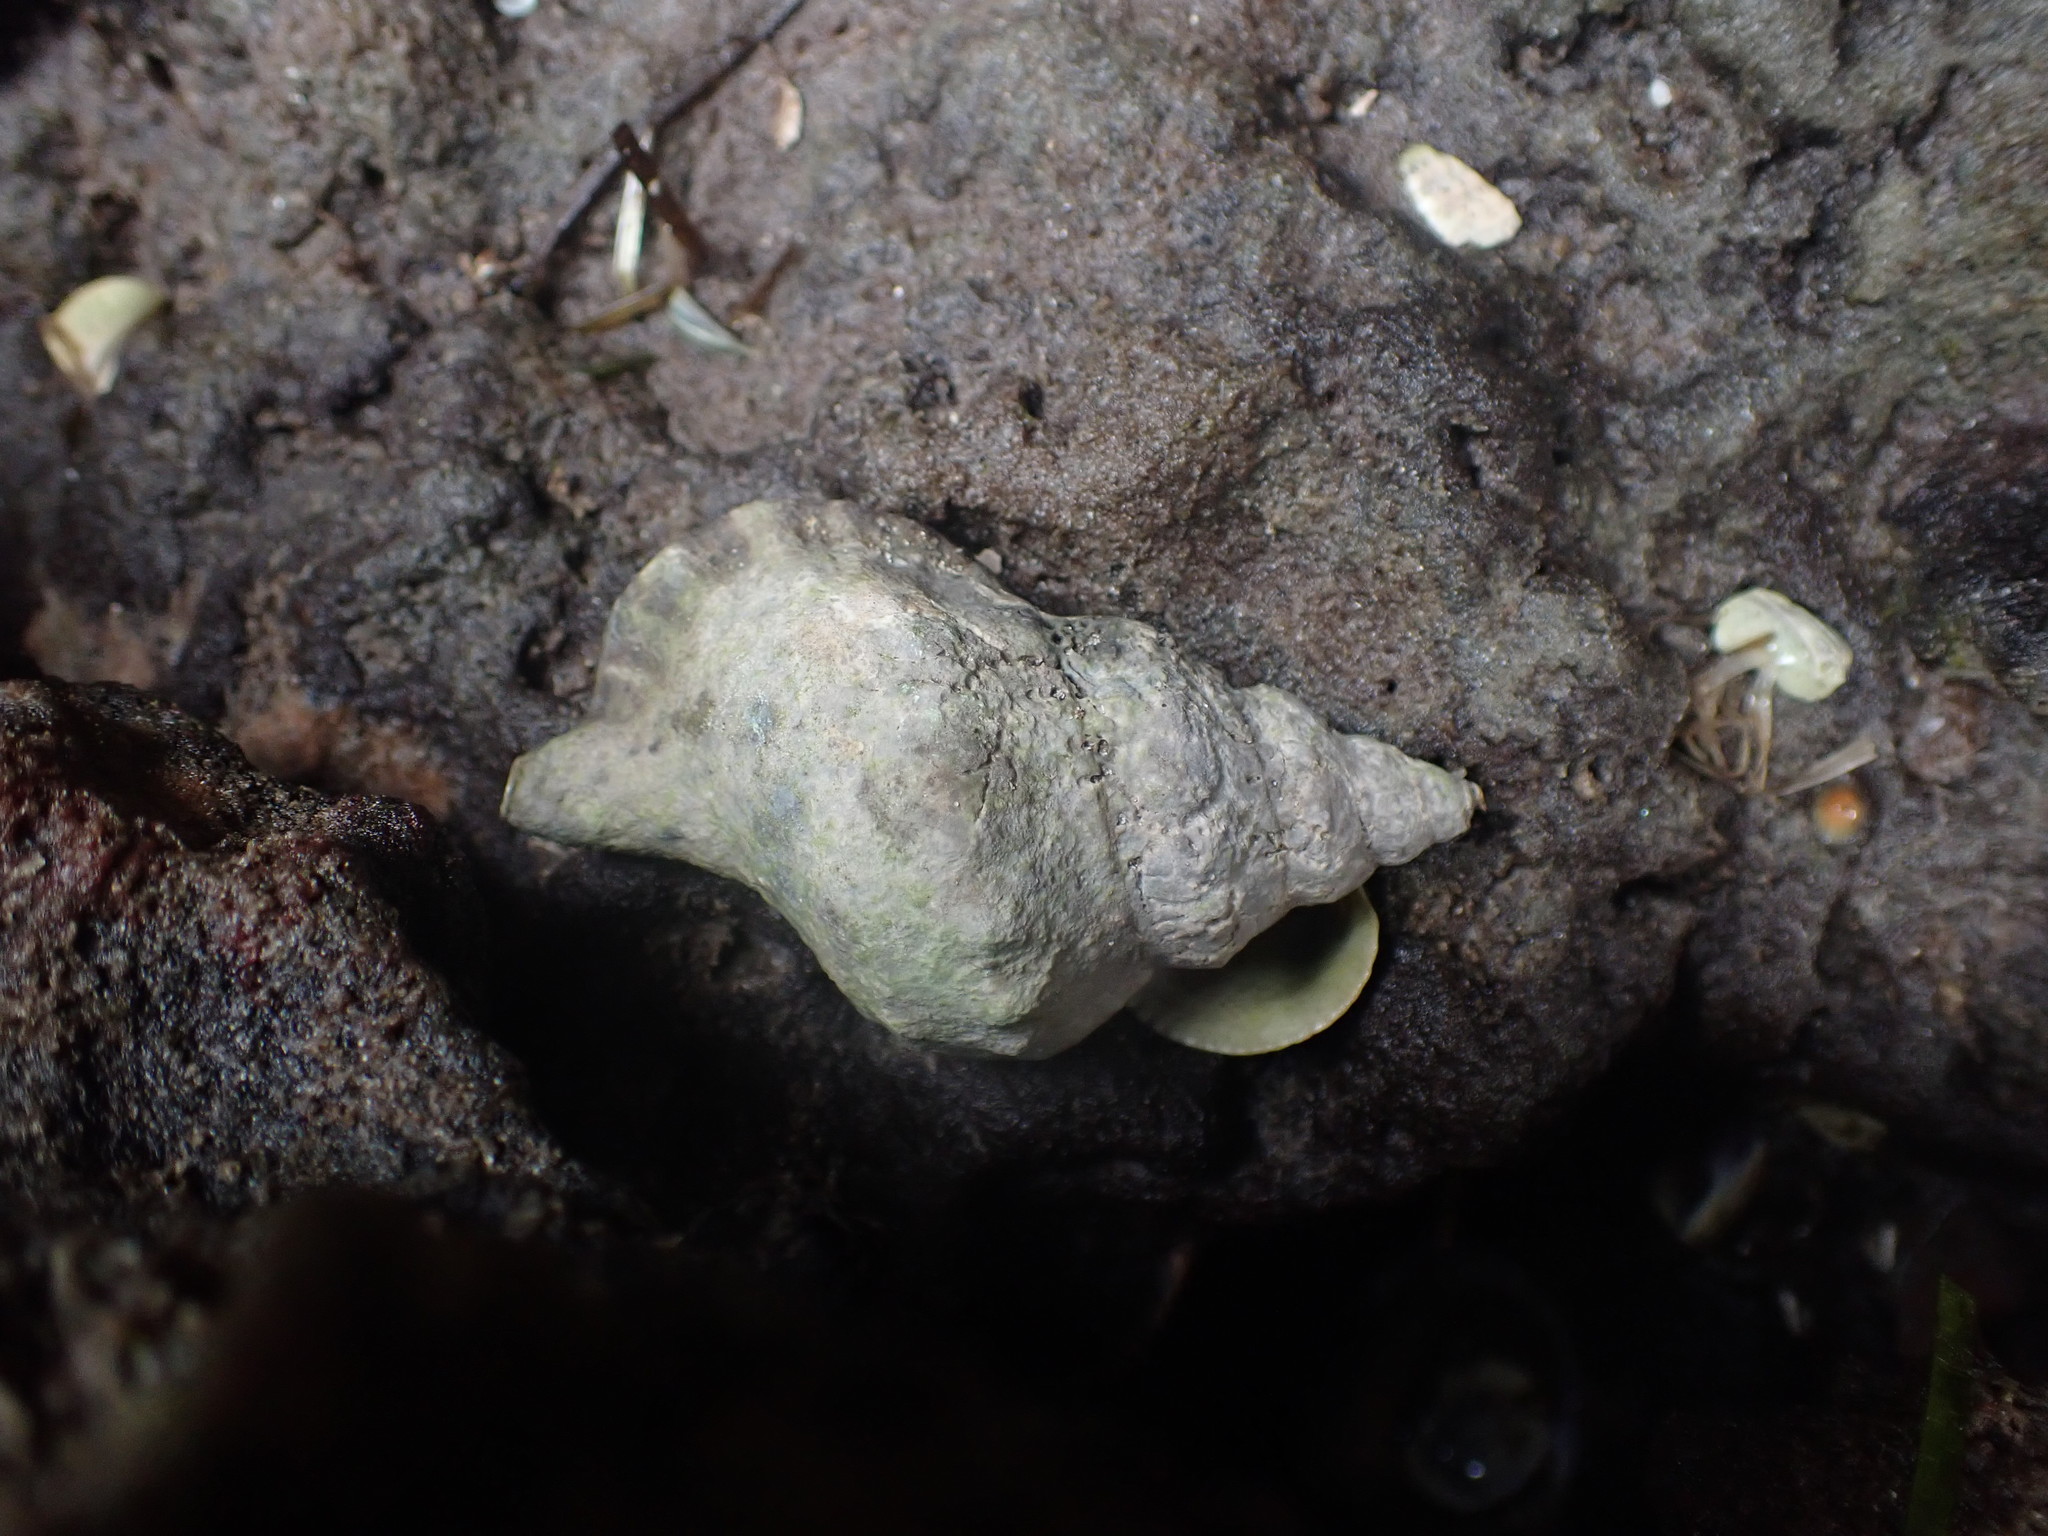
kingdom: Animalia
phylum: Mollusca
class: Gastropoda
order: Littorinimorpha
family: Ranellidae
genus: Ranella
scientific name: Ranella australasia
